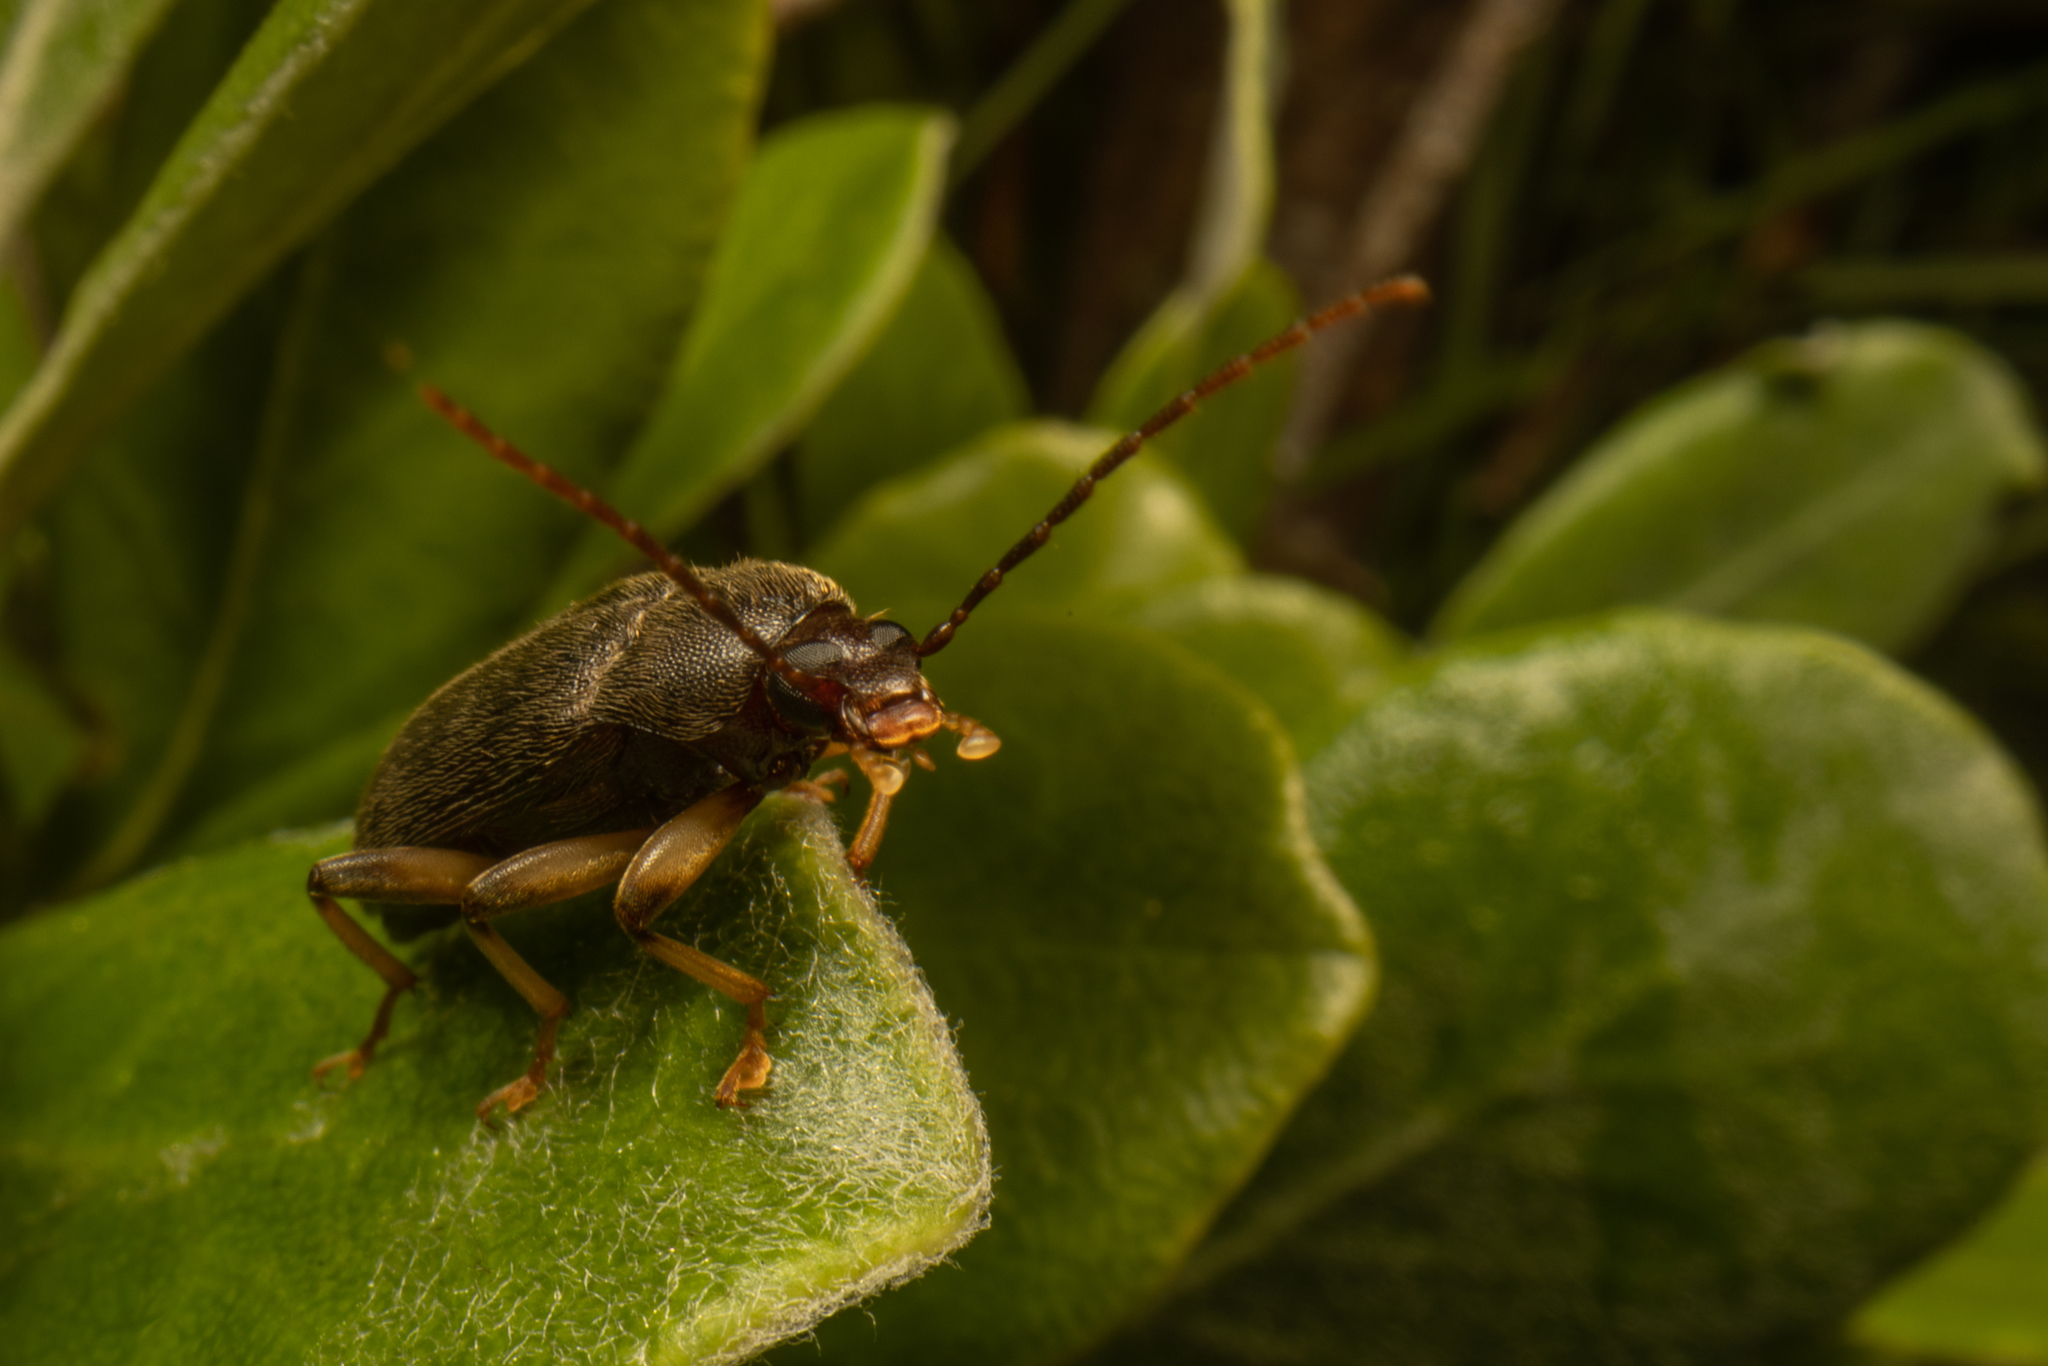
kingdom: Animalia
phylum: Arthropoda
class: Insecta
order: Coleoptera
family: Tenebrionidae
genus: Homotrysis
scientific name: Homotrysis
